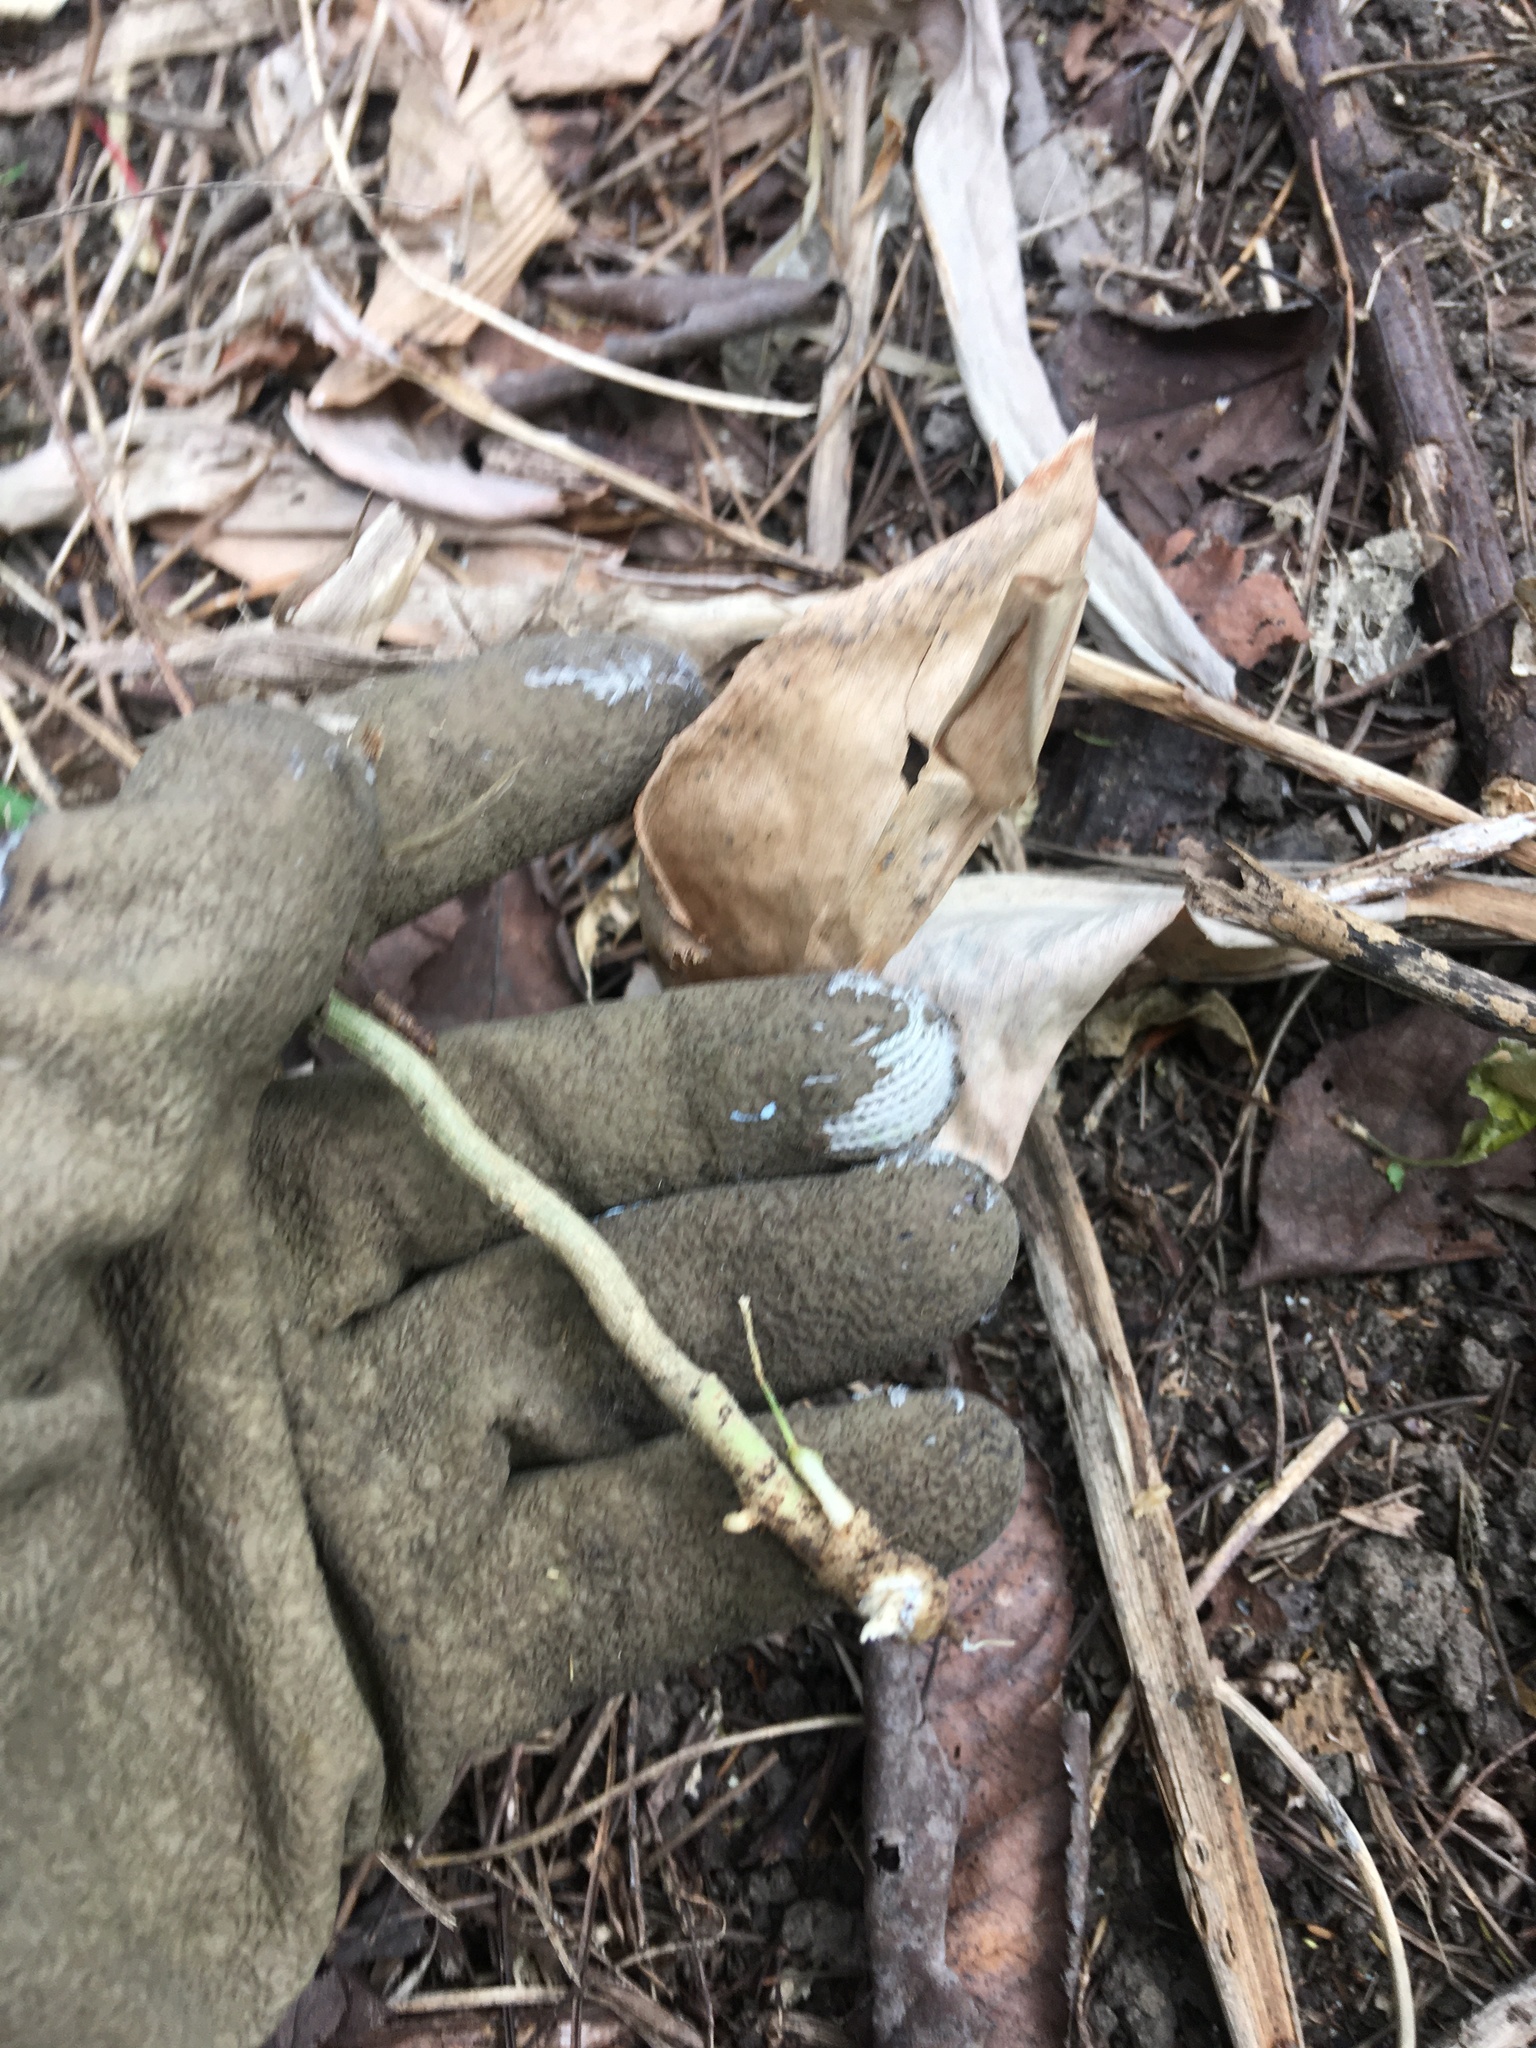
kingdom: Plantae
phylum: Tracheophyta
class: Magnoliopsida
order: Gentianales
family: Apocynaceae
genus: Araujia
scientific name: Araujia sericifera
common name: White bladderflower
